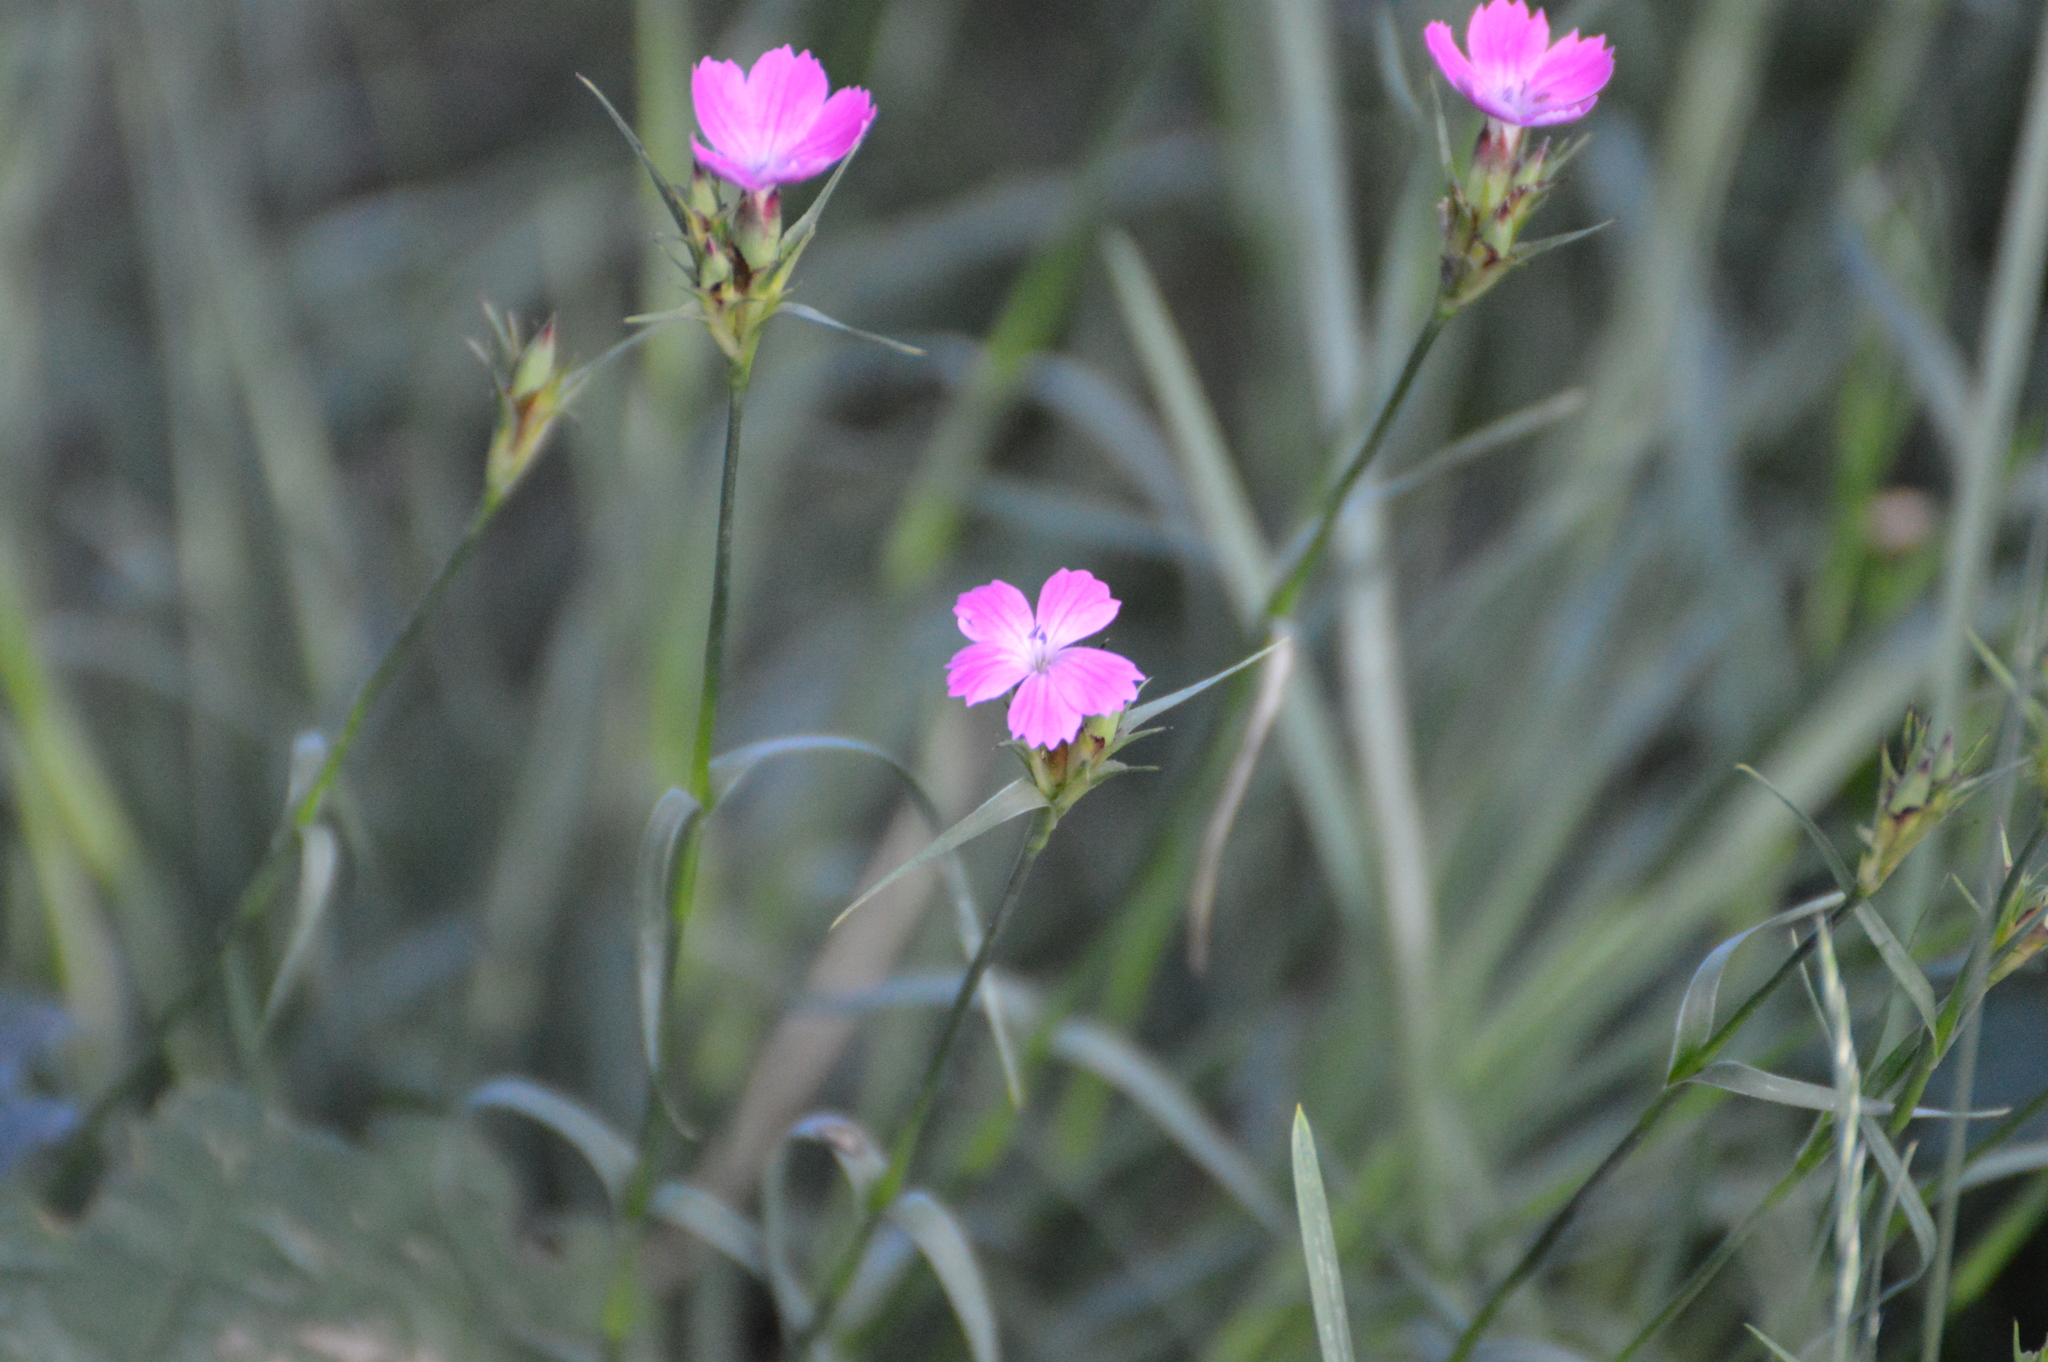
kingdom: Plantae
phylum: Tracheophyta
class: Magnoliopsida
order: Caryophyllales
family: Caryophyllaceae
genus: Dianthus
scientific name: Dianthus carthusianorum
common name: Carthusian pink
